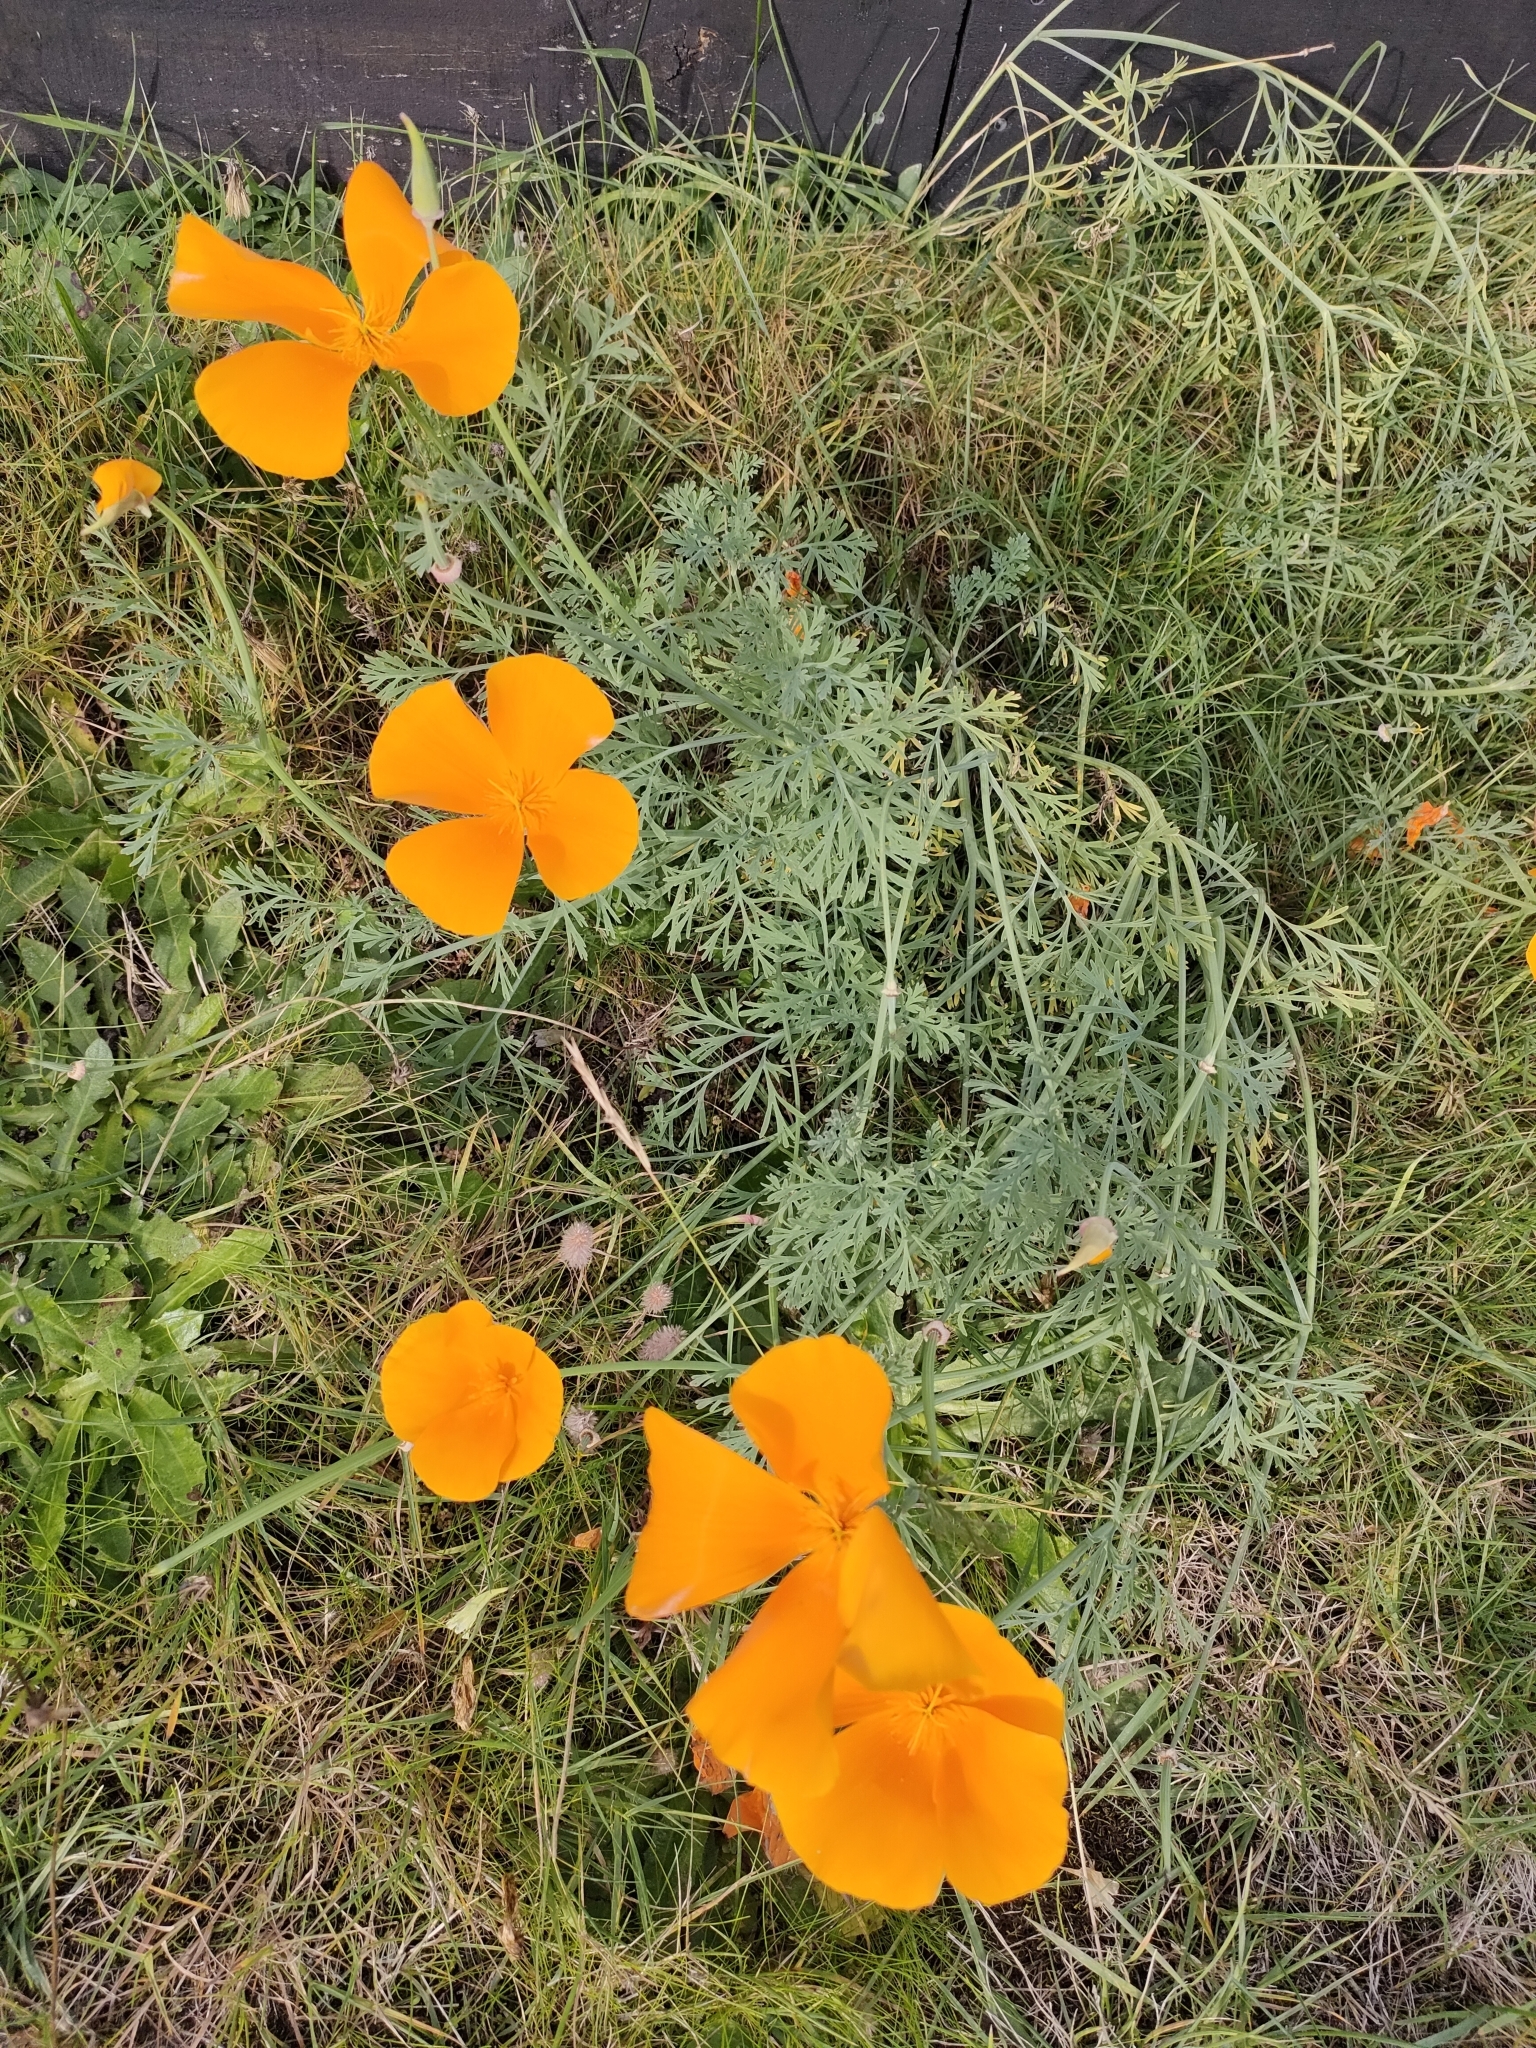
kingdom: Plantae
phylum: Tracheophyta
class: Magnoliopsida
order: Ranunculales
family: Papaveraceae
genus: Eschscholzia
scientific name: Eschscholzia californica
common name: California poppy
